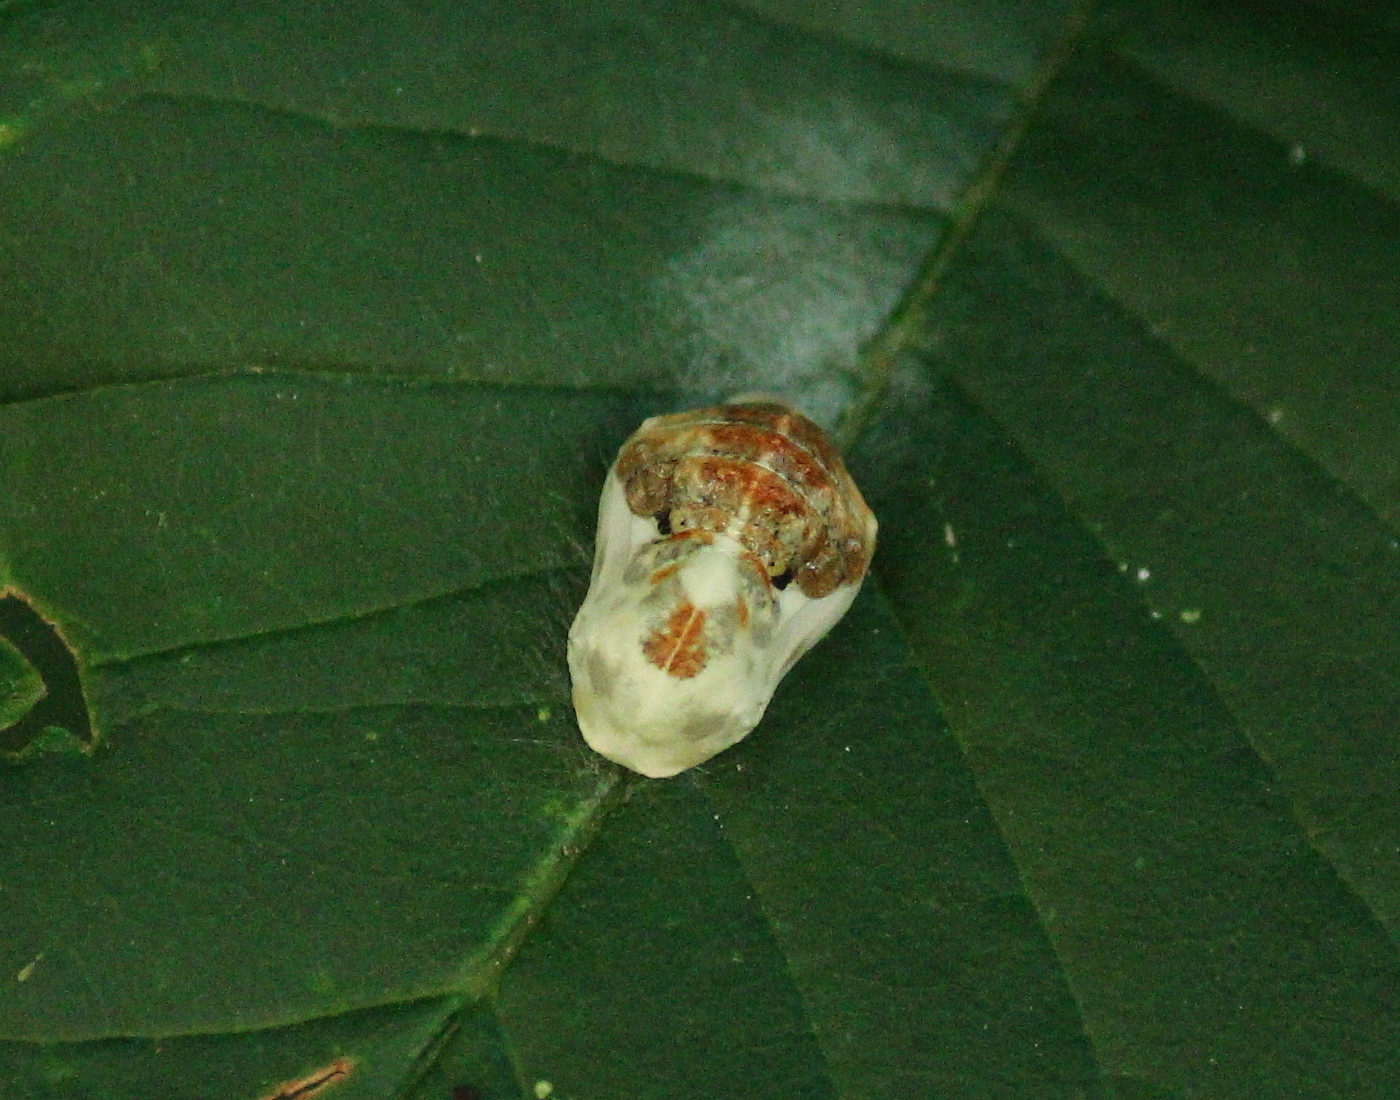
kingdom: Animalia
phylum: Arthropoda
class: Insecta
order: Lepidoptera
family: Lycaenidae
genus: Feniseca
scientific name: Feniseca tarquinius
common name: Harvester
